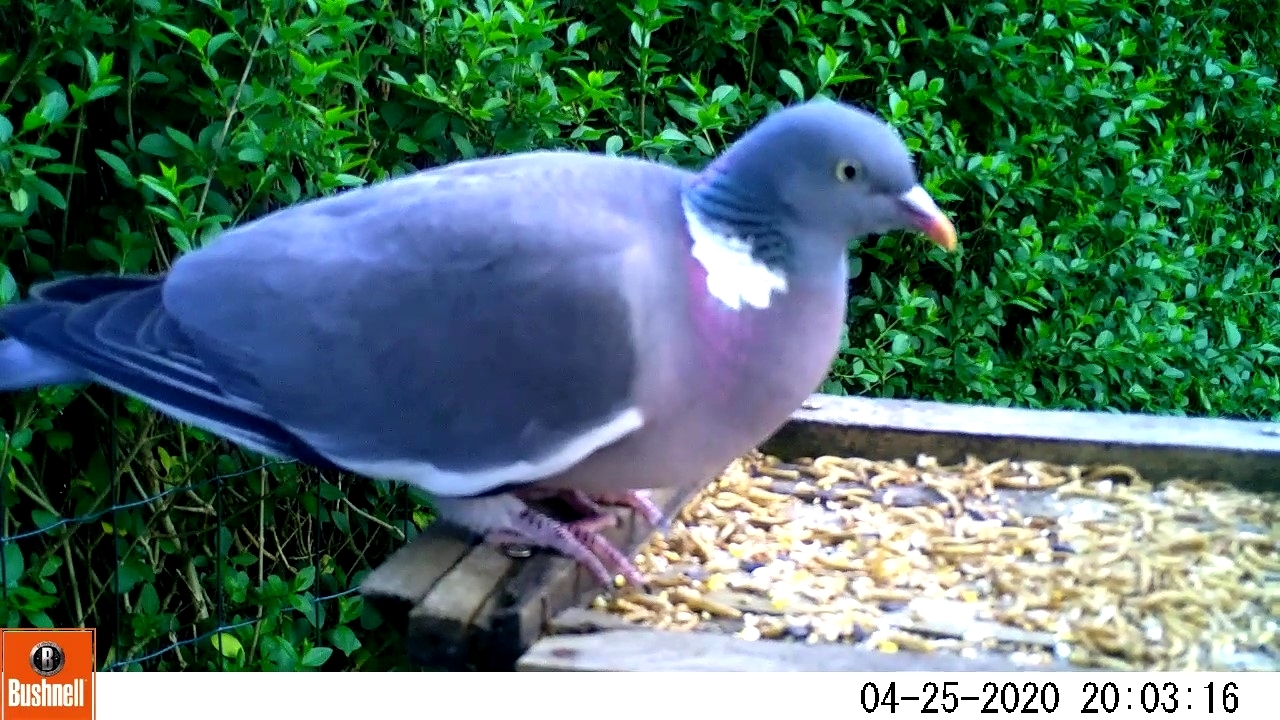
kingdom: Animalia
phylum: Chordata
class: Aves
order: Columbiformes
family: Columbidae
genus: Columba
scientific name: Columba palumbus
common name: Common wood pigeon
